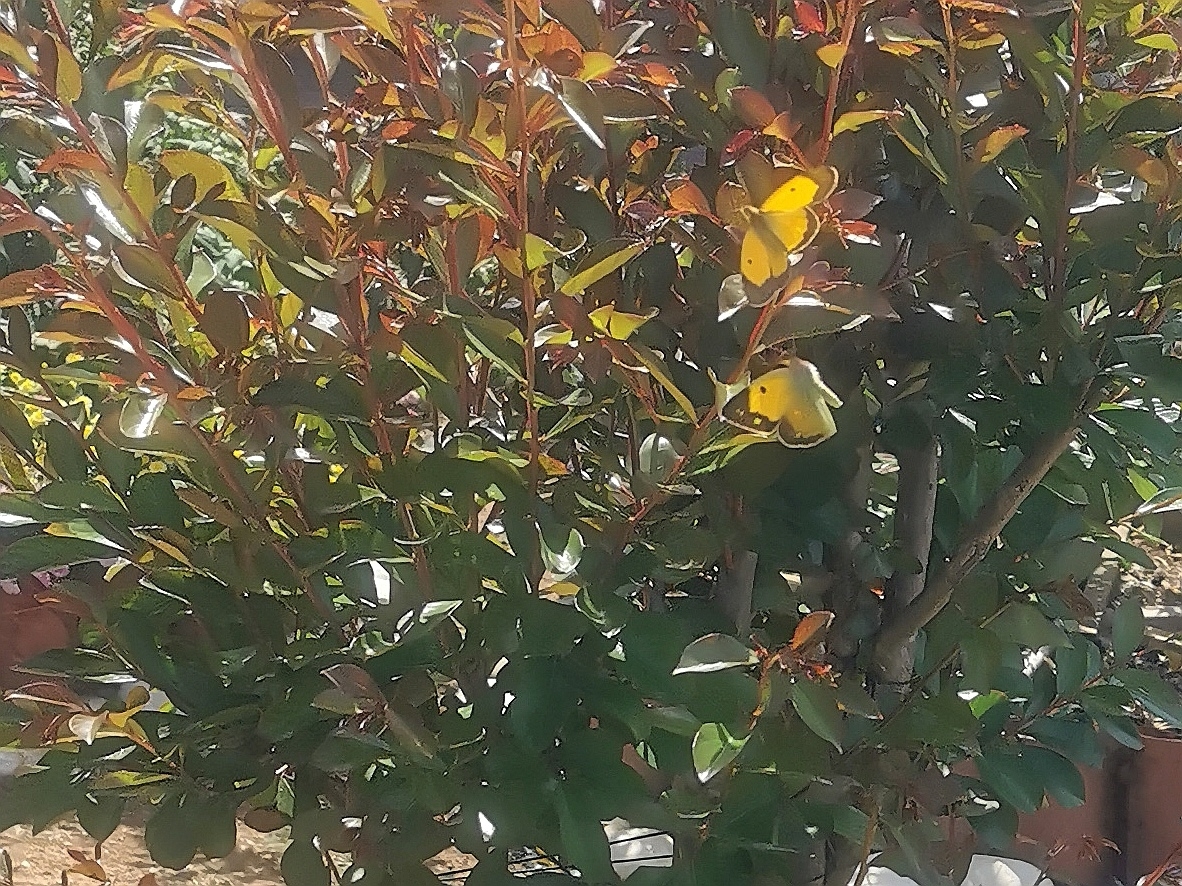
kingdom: Animalia
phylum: Arthropoda
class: Insecta
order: Lepidoptera
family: Pieridae
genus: Colias
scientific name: Colias croceus
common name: Clouded yellow
